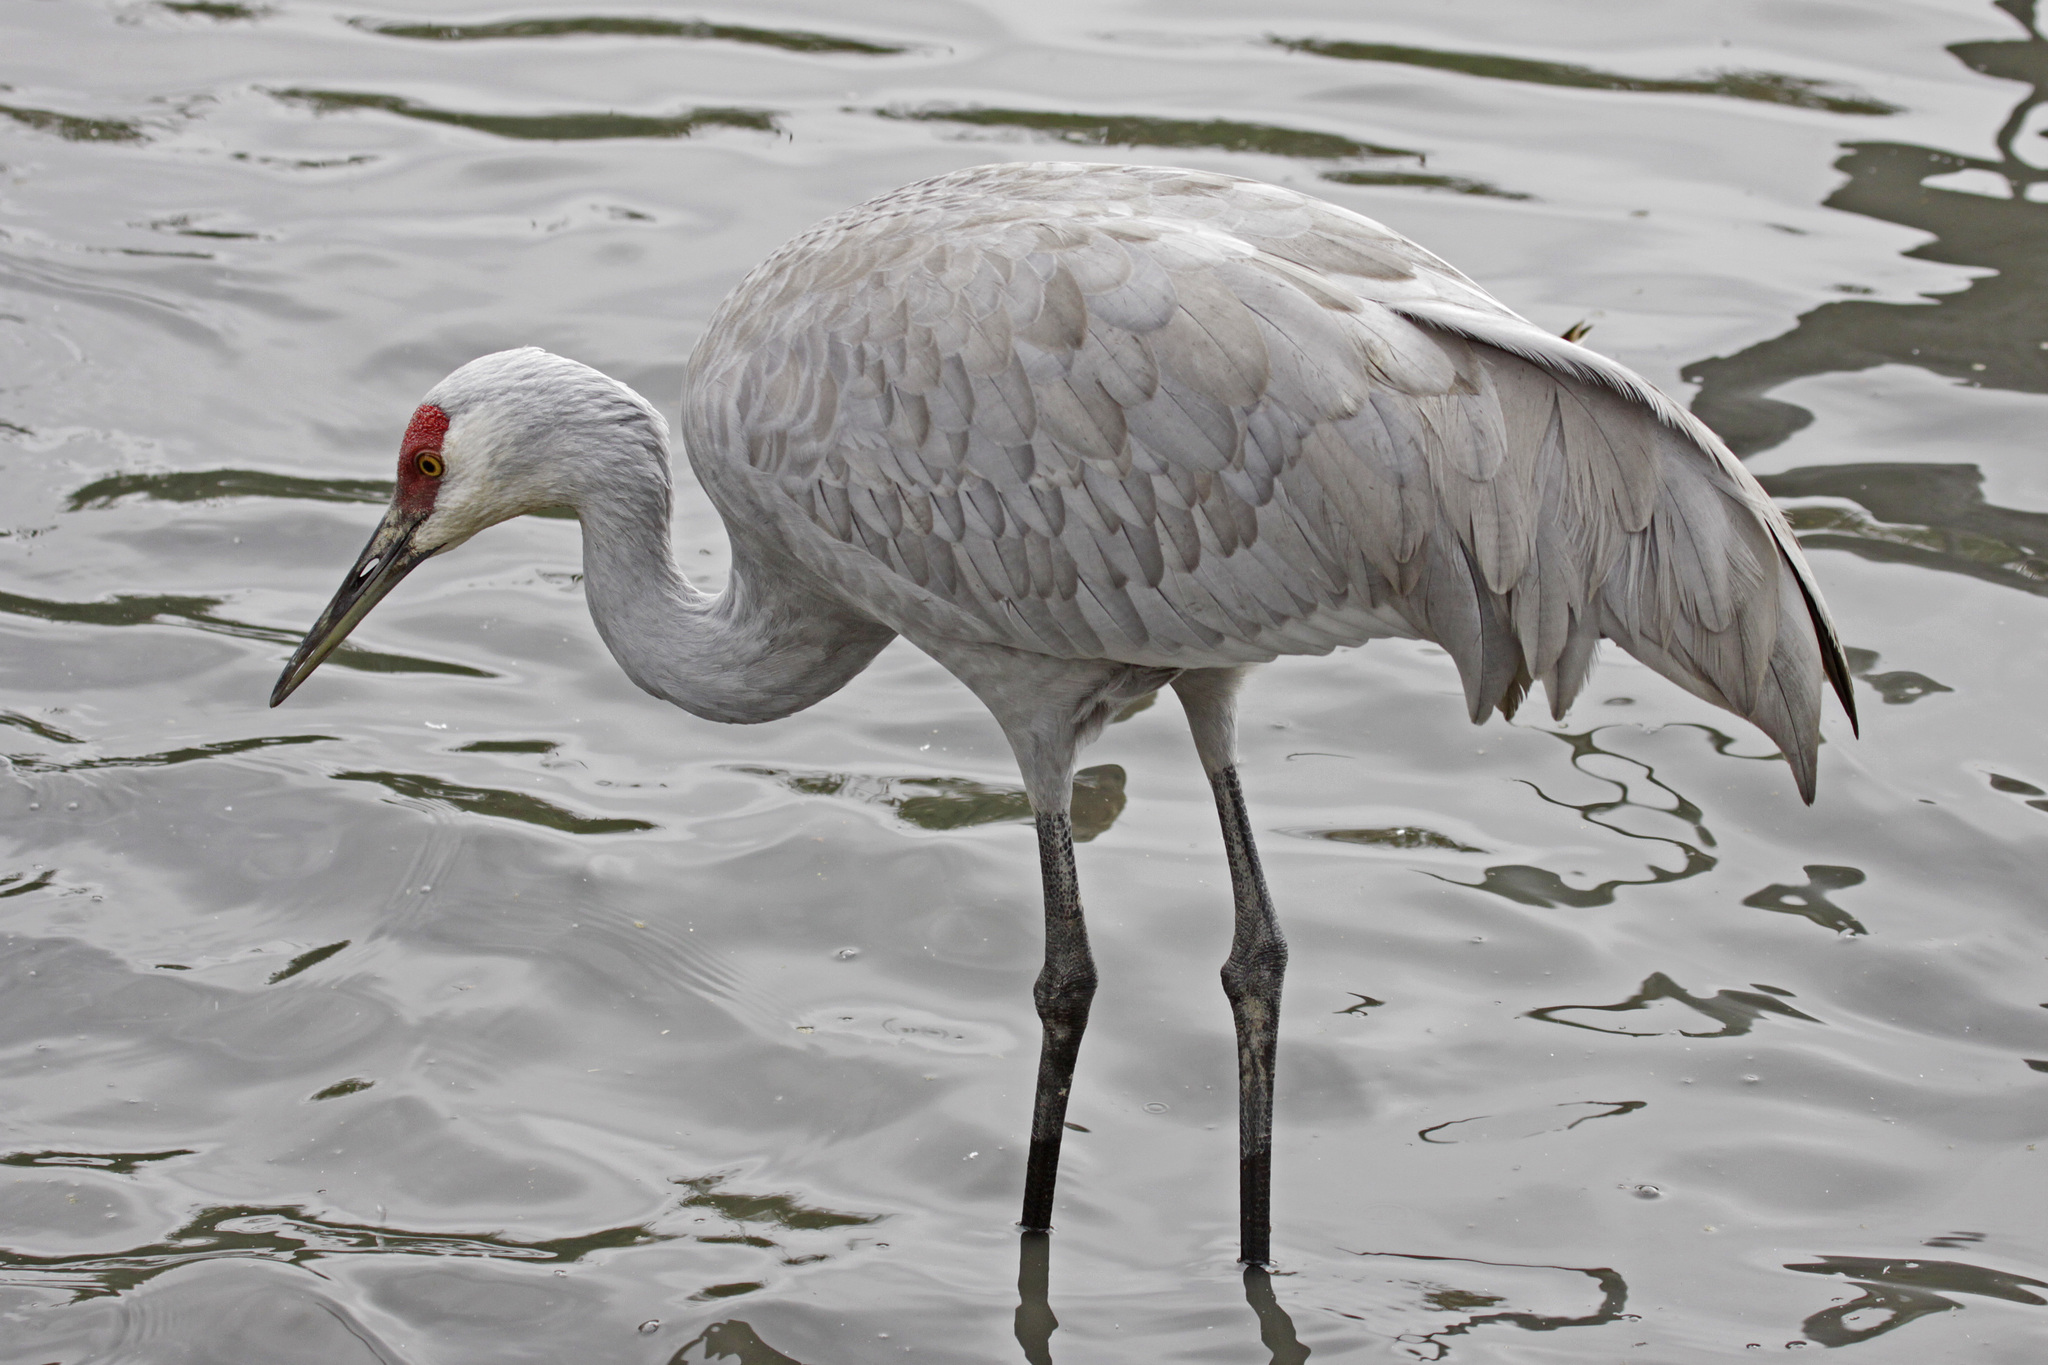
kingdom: Animalia
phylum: Chordata
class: Aves
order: Gruiformes
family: Gruidae
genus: Grus
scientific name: Grus canadensis
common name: Sandhill crane
